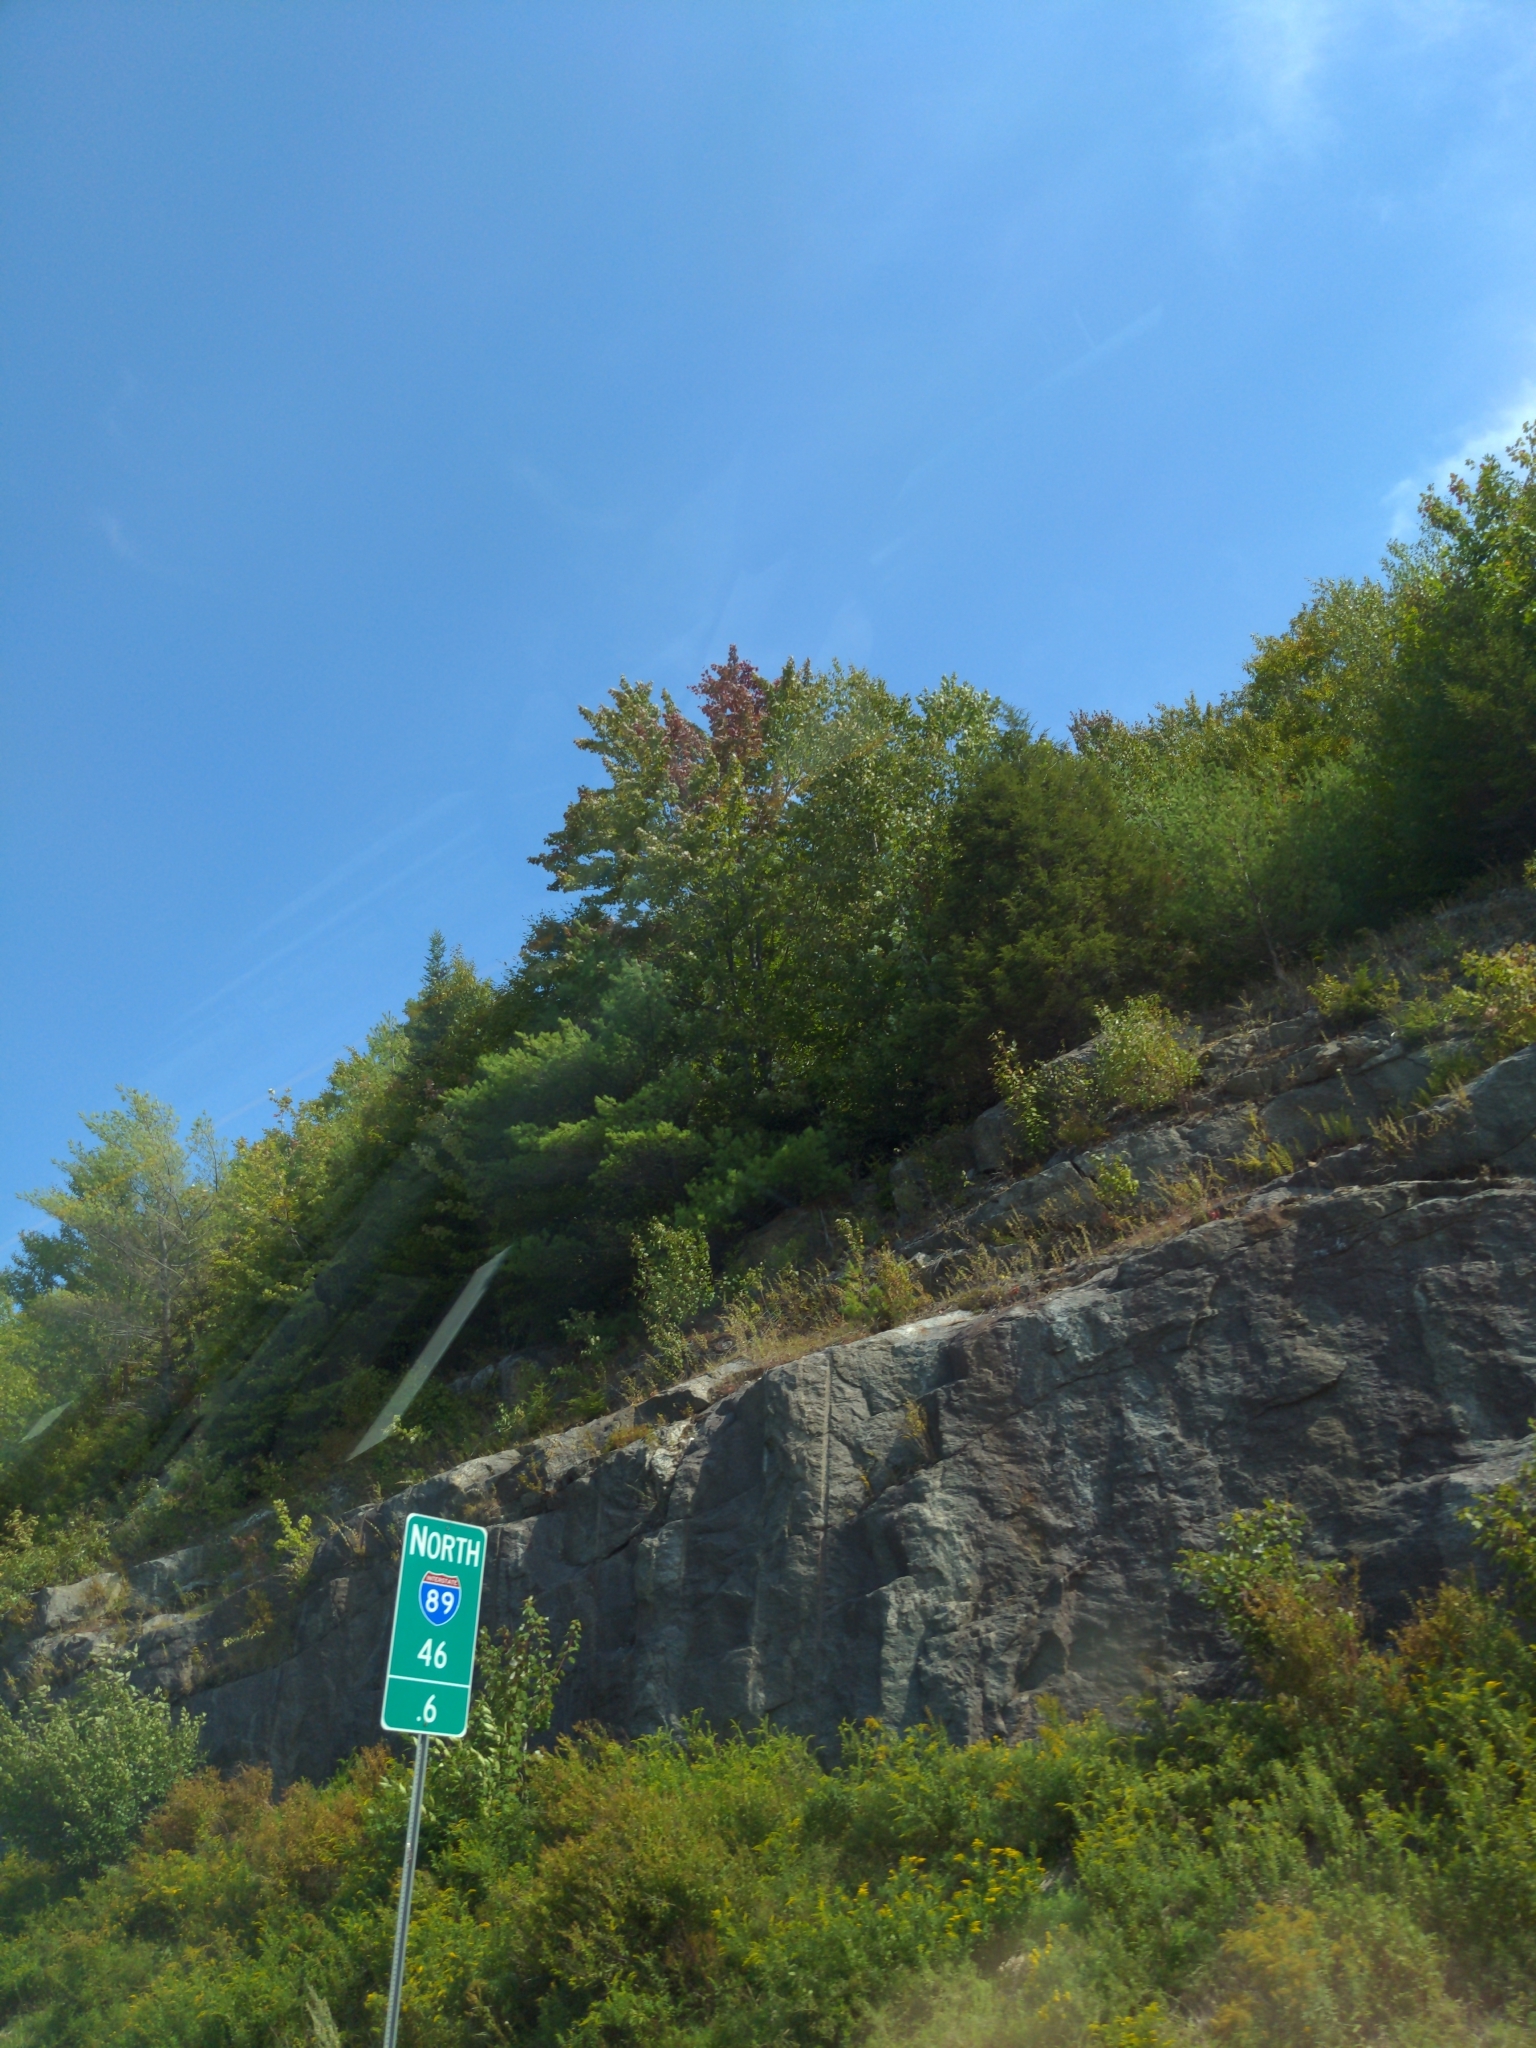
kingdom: Plantae
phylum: Tracheophyta
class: Pinopsida
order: Pinales
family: Pinaceae
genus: Pinus
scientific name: Pinus strobus
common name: Weymouth pine
